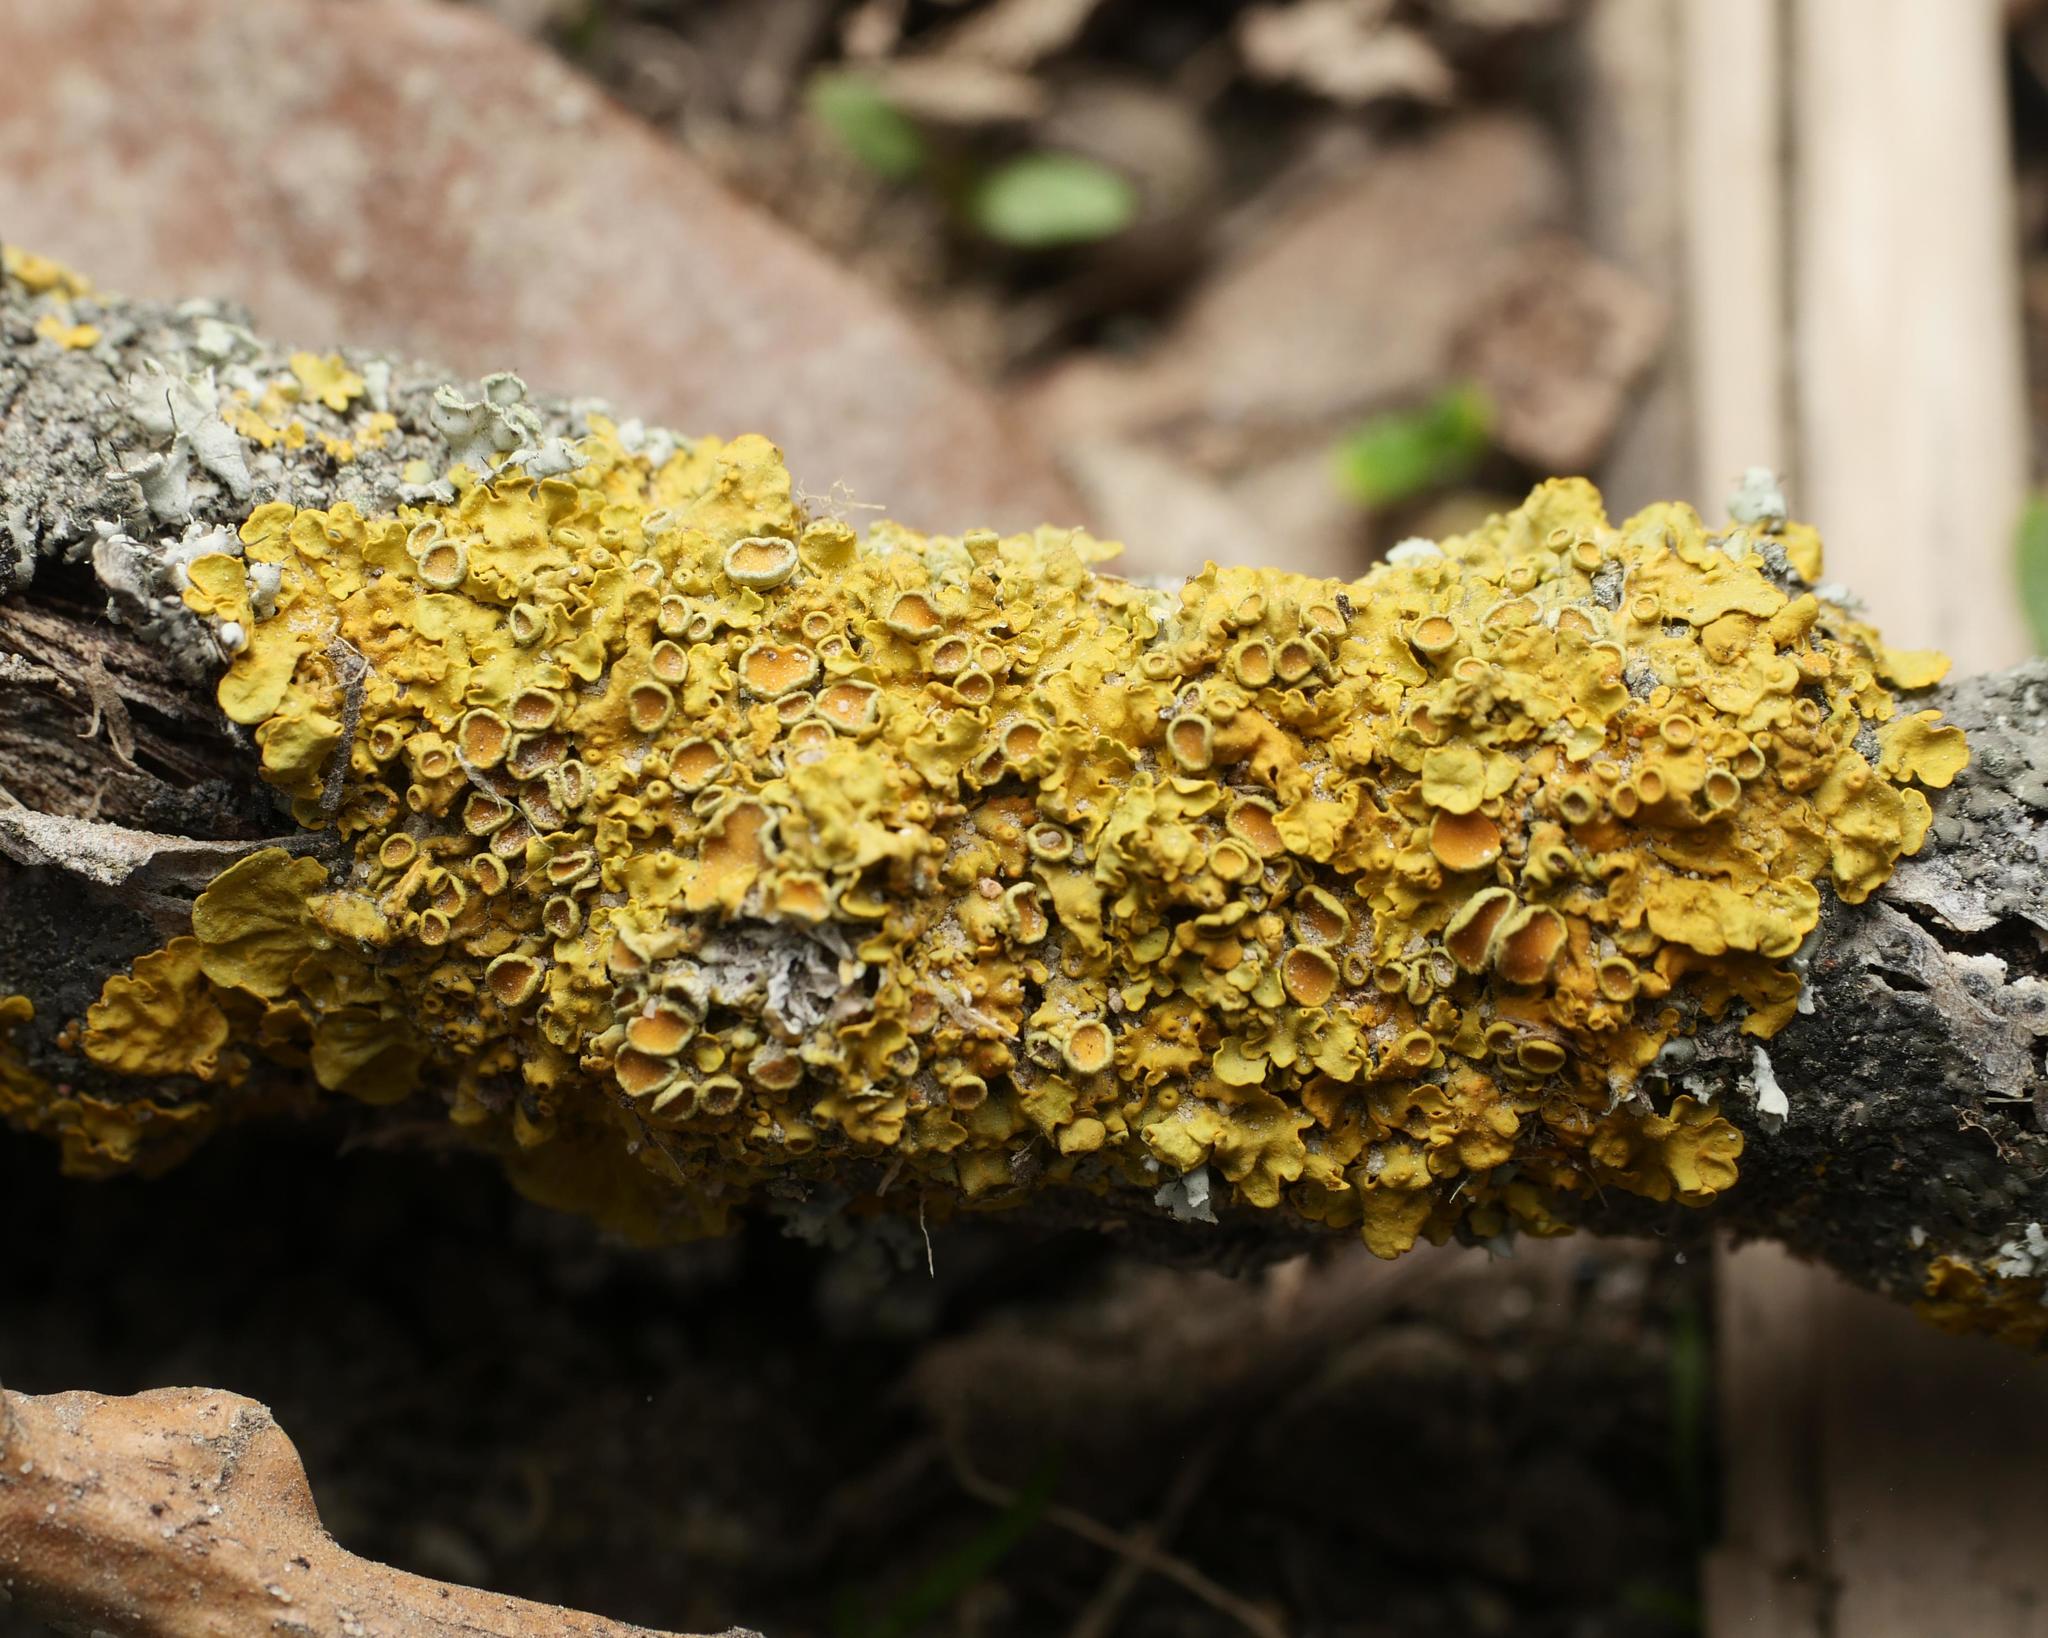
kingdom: Fungi
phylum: Ascomycota
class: Lecanoromycetes
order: Teloschistales
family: Teloschistaceae
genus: Xanthoria
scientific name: Xanthoria parietina
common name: Common orange lichen
